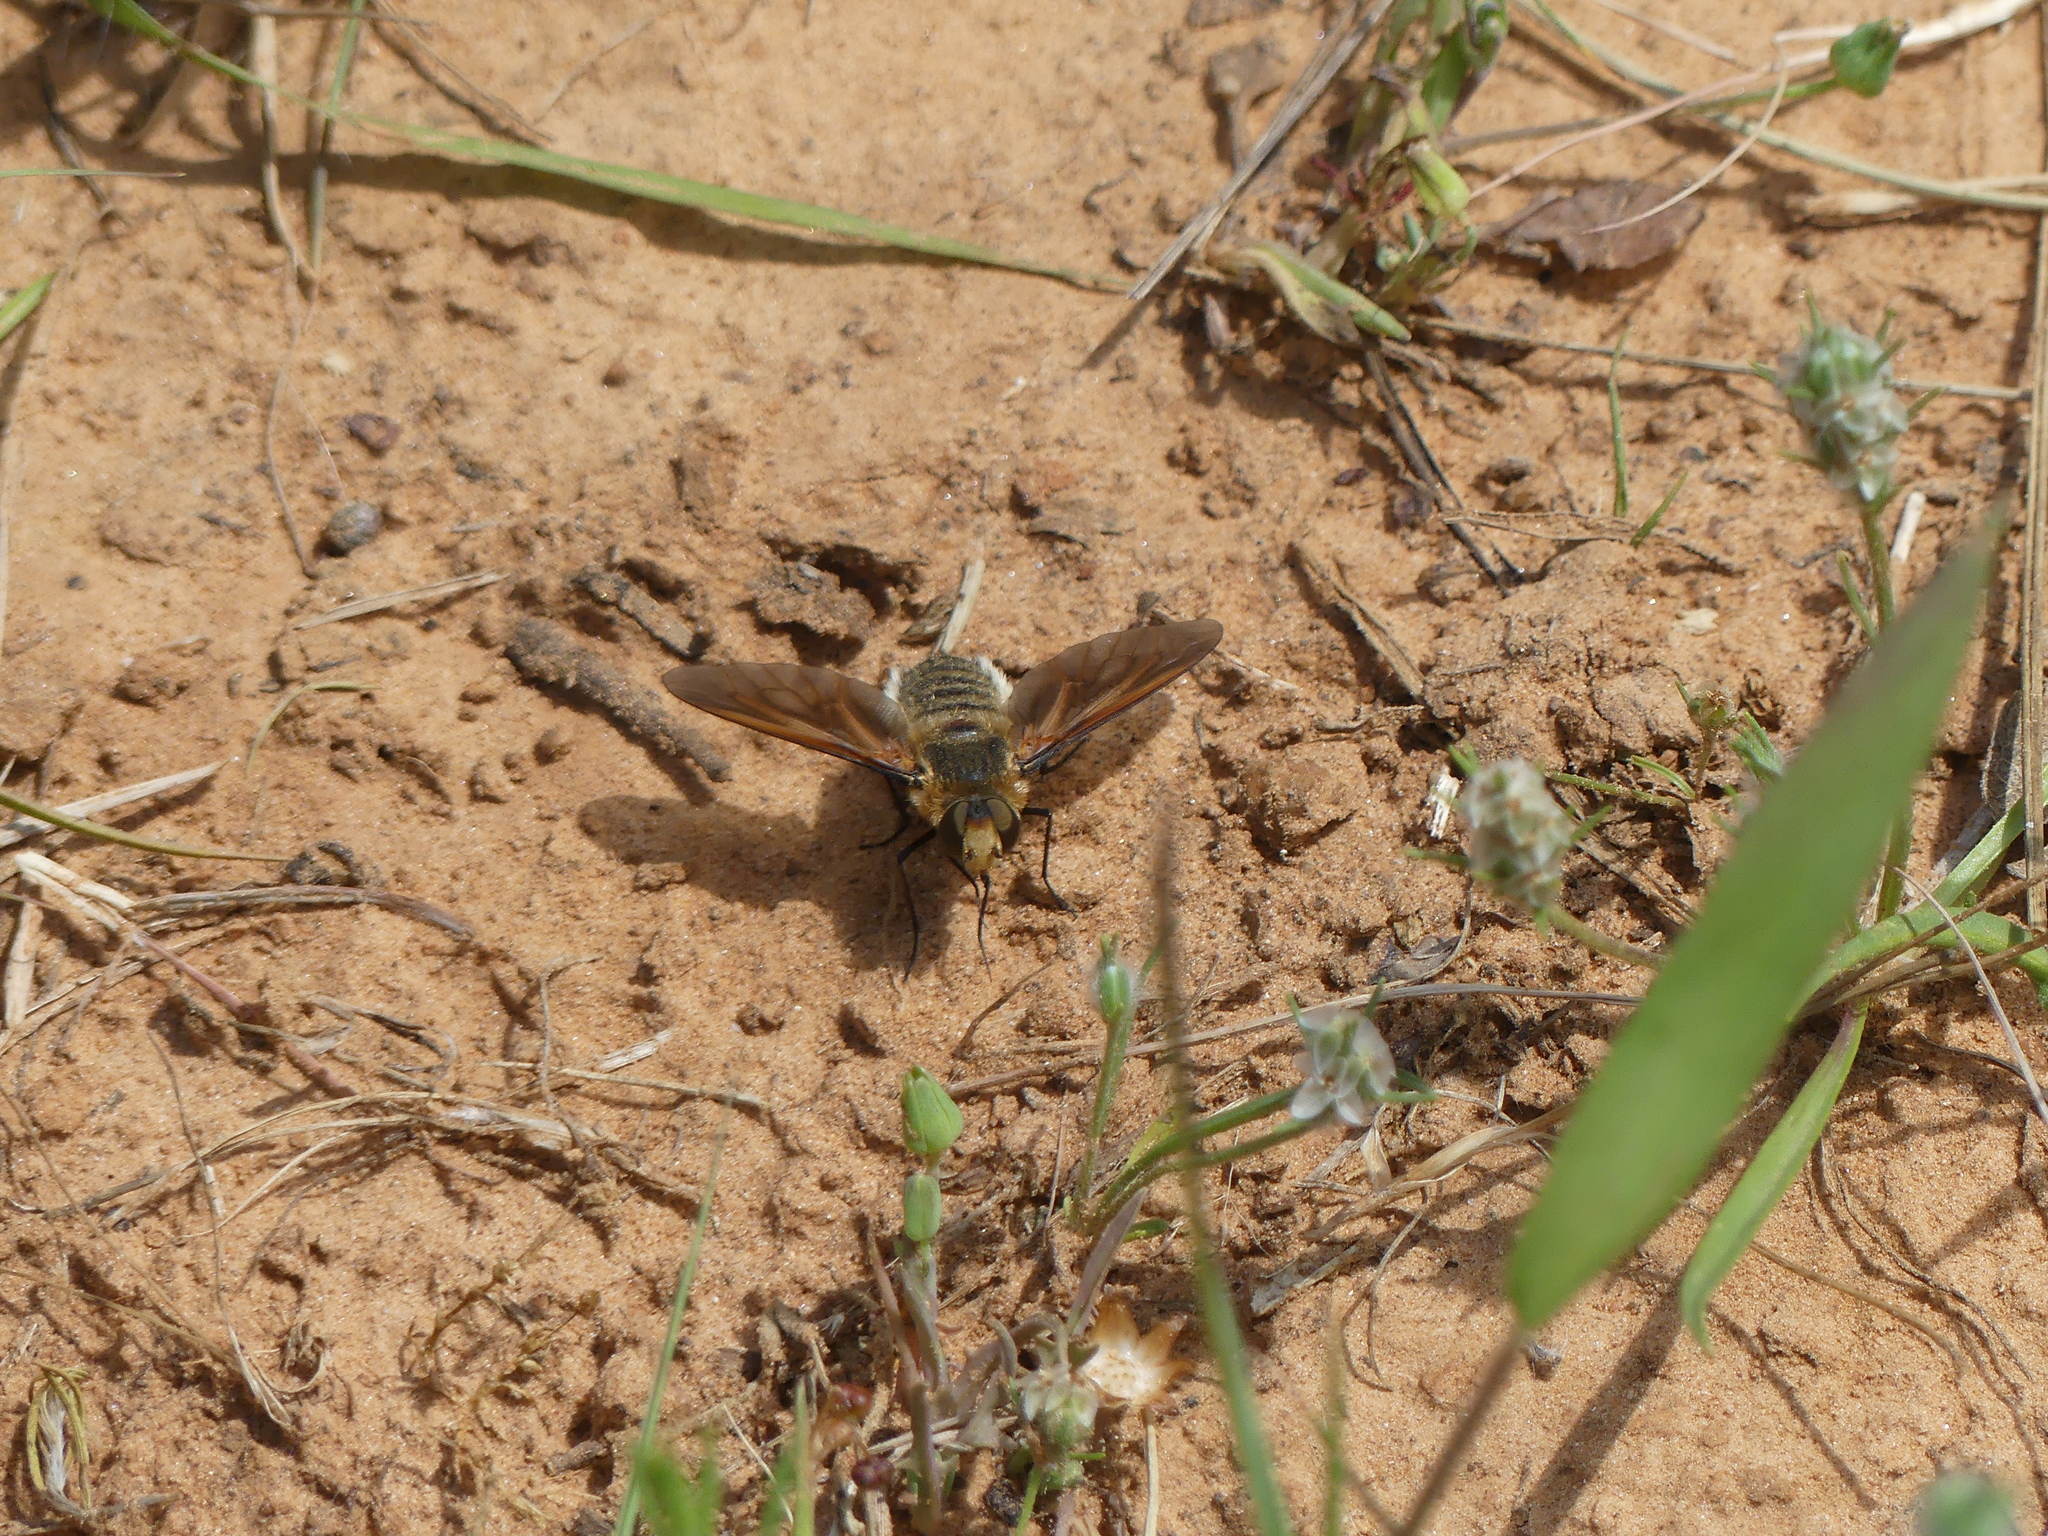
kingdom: Animalia
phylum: Arthropoda
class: Insecta
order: Diptera
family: Bombyliidae
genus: Poecilanthrax
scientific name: Poecilanthrax lucifer
